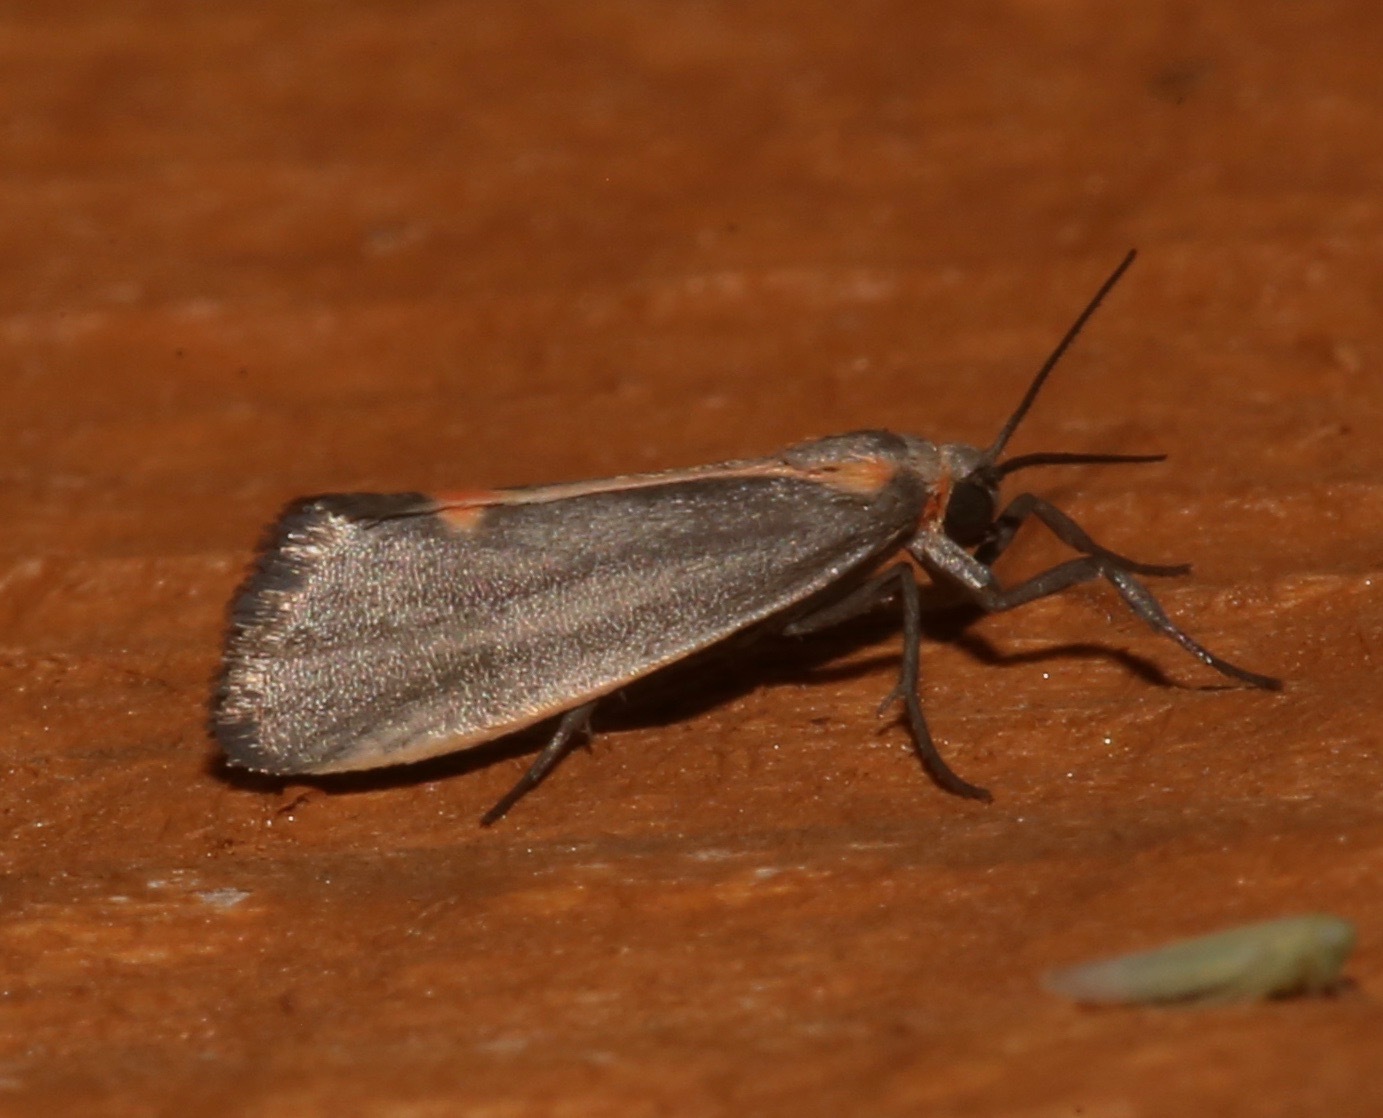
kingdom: Animalia
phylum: Arthropoda
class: Insecta
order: Lepidoptera
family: Erebidae
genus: Cisthene
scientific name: Cisthene striata
